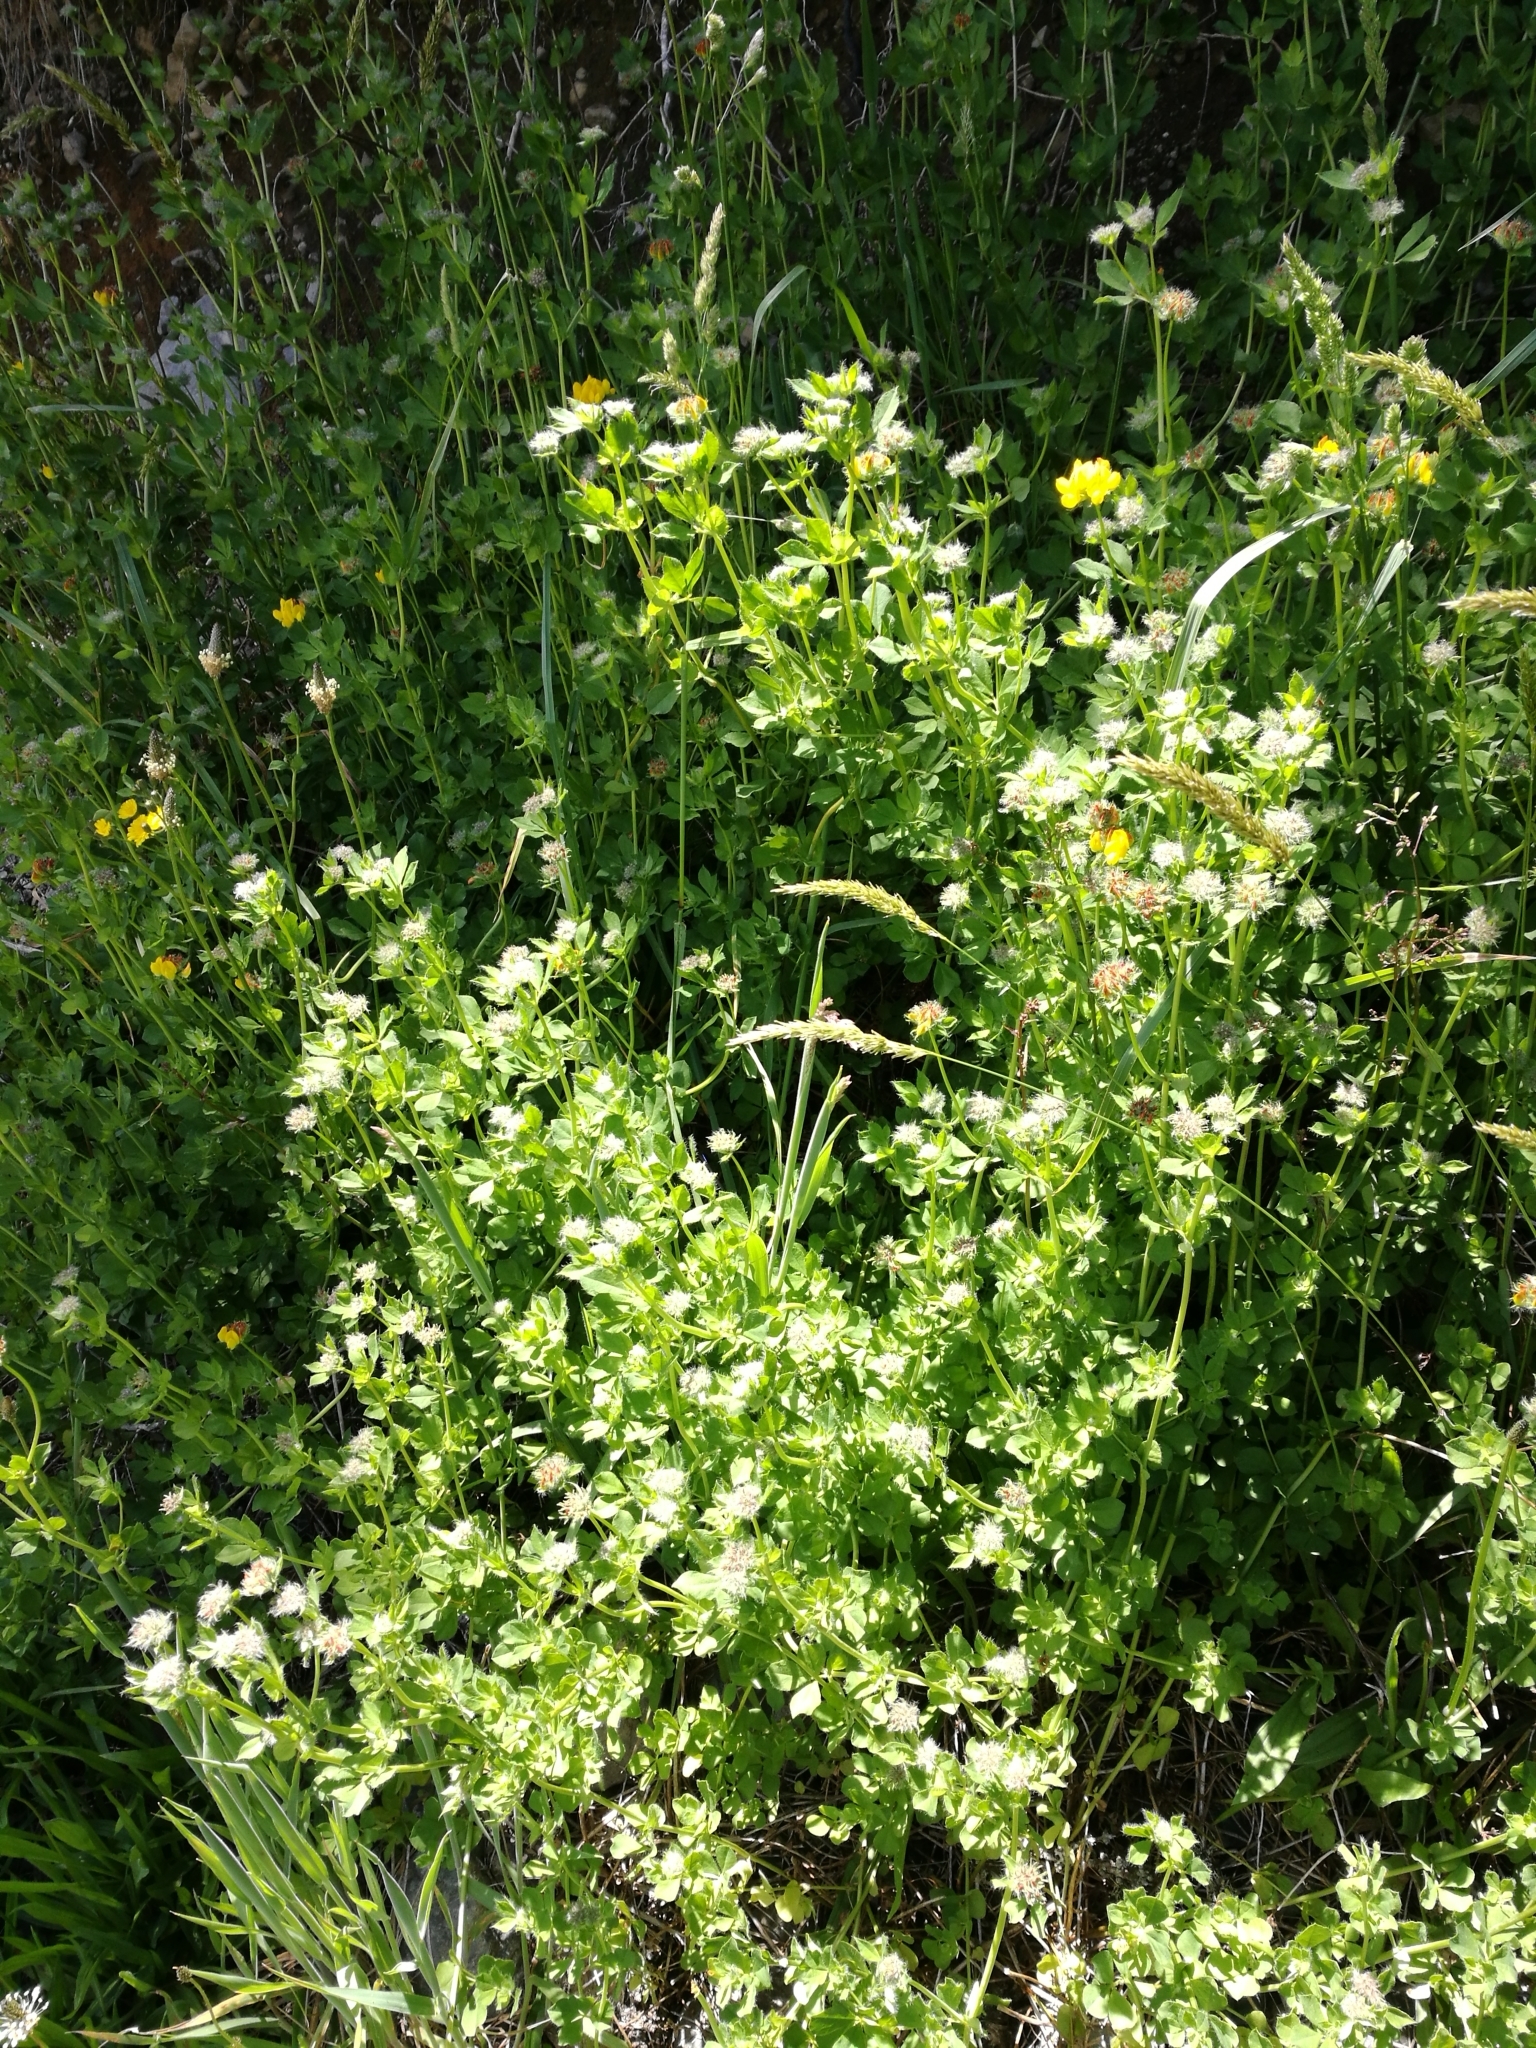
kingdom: Plantae
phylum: Tracheophyta
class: Magnoliopsida
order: Fabales
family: Fabaceae
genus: Lotus
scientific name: Lotus pedunculatus
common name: Greater birdsfoot-trefoil
